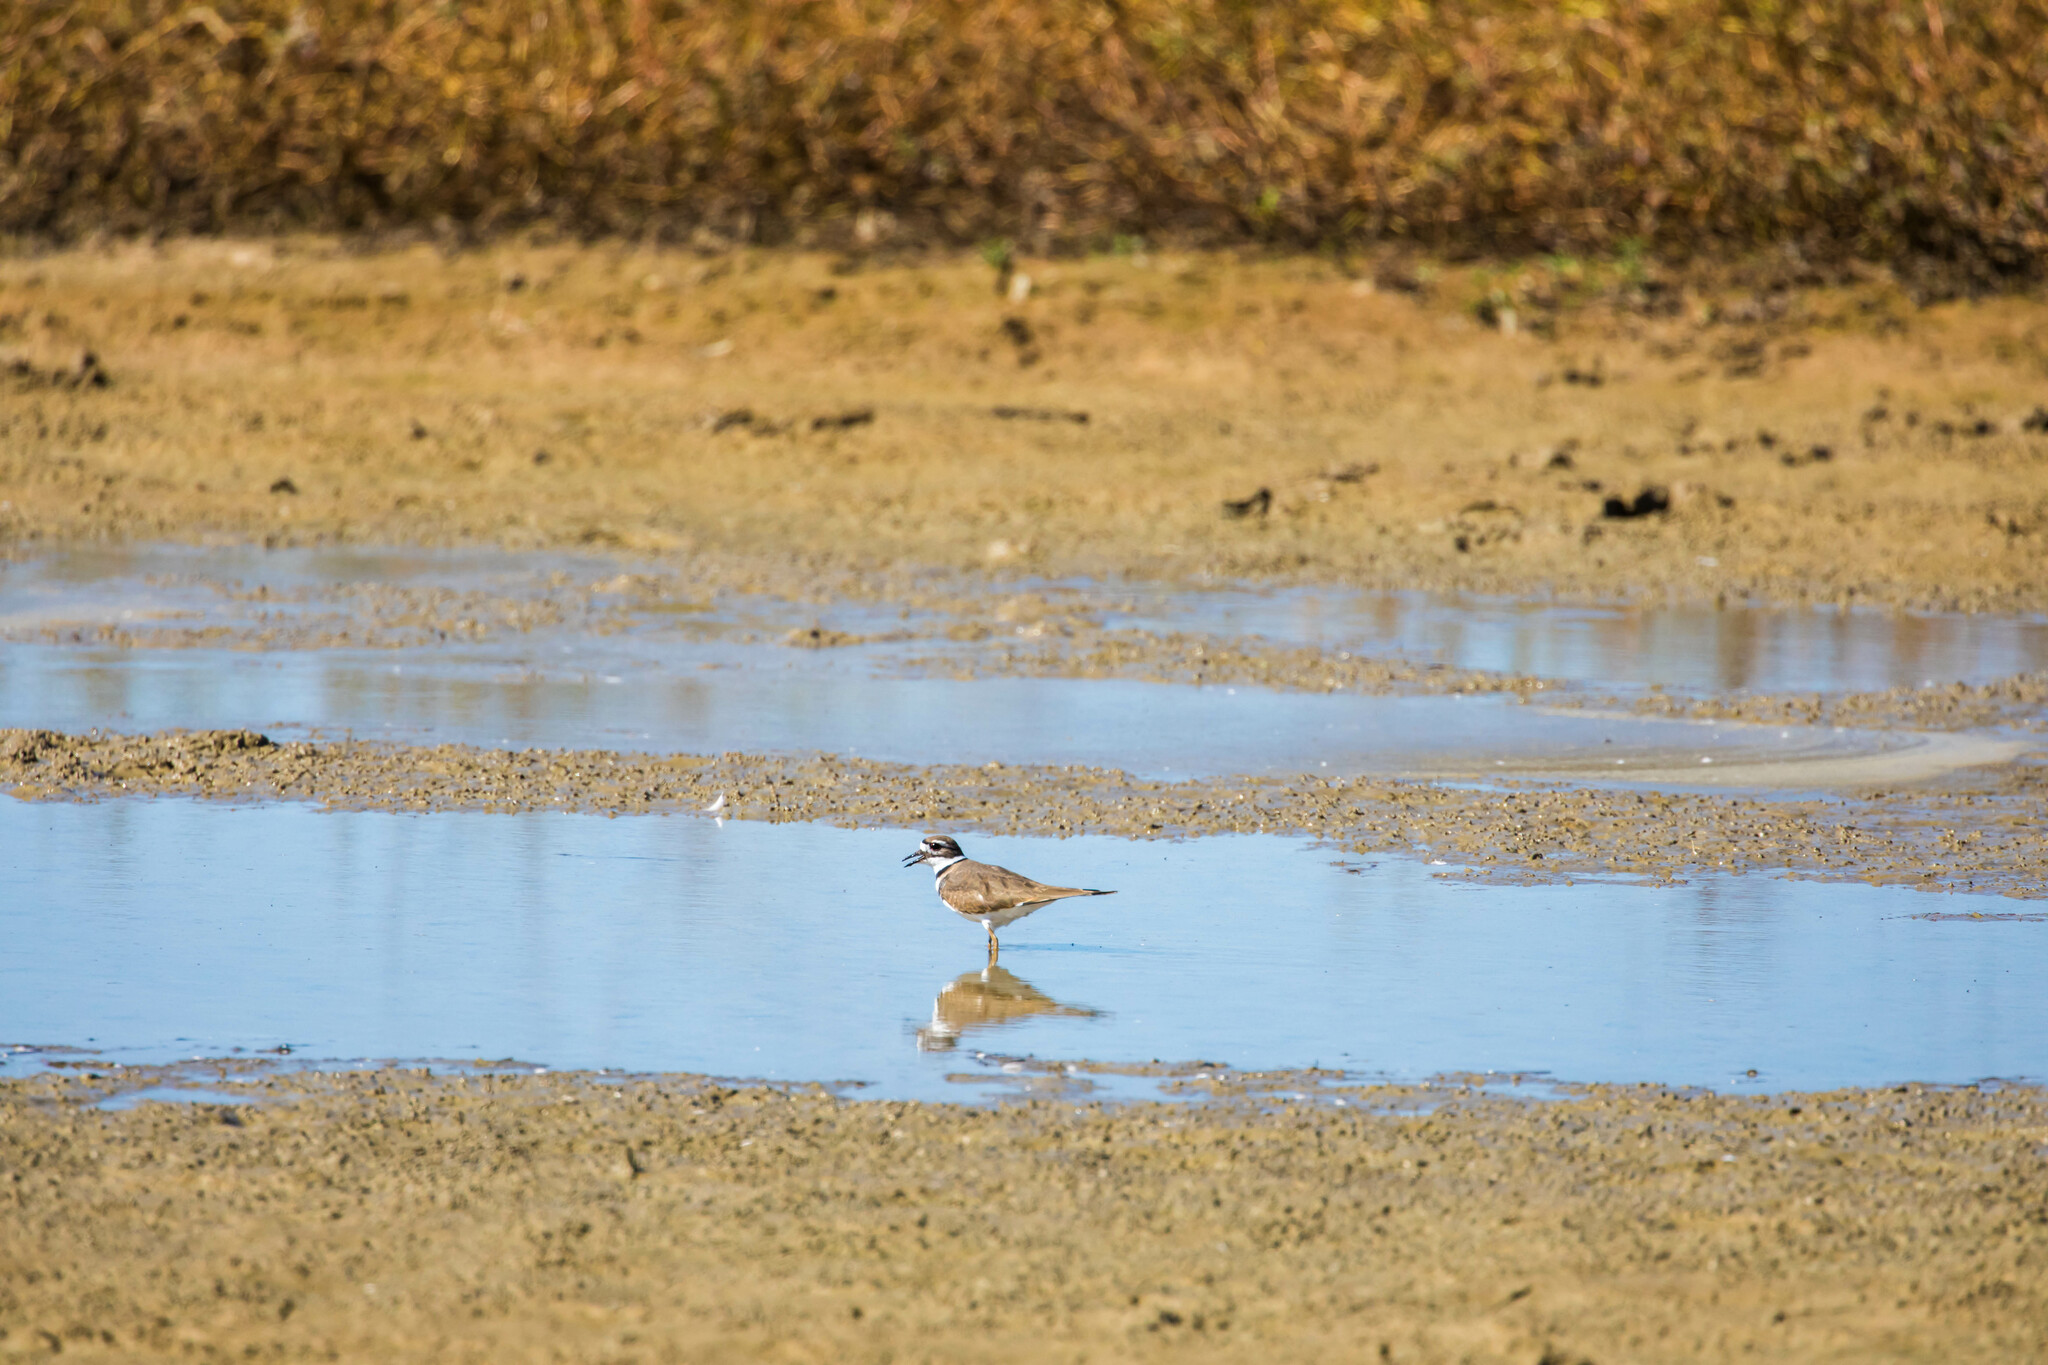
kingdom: Animalia
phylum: Chordata
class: Aves
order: Charadriiformes
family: Charadriidae
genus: Charadrius
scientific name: Charadrius vociferus
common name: Killdeer
